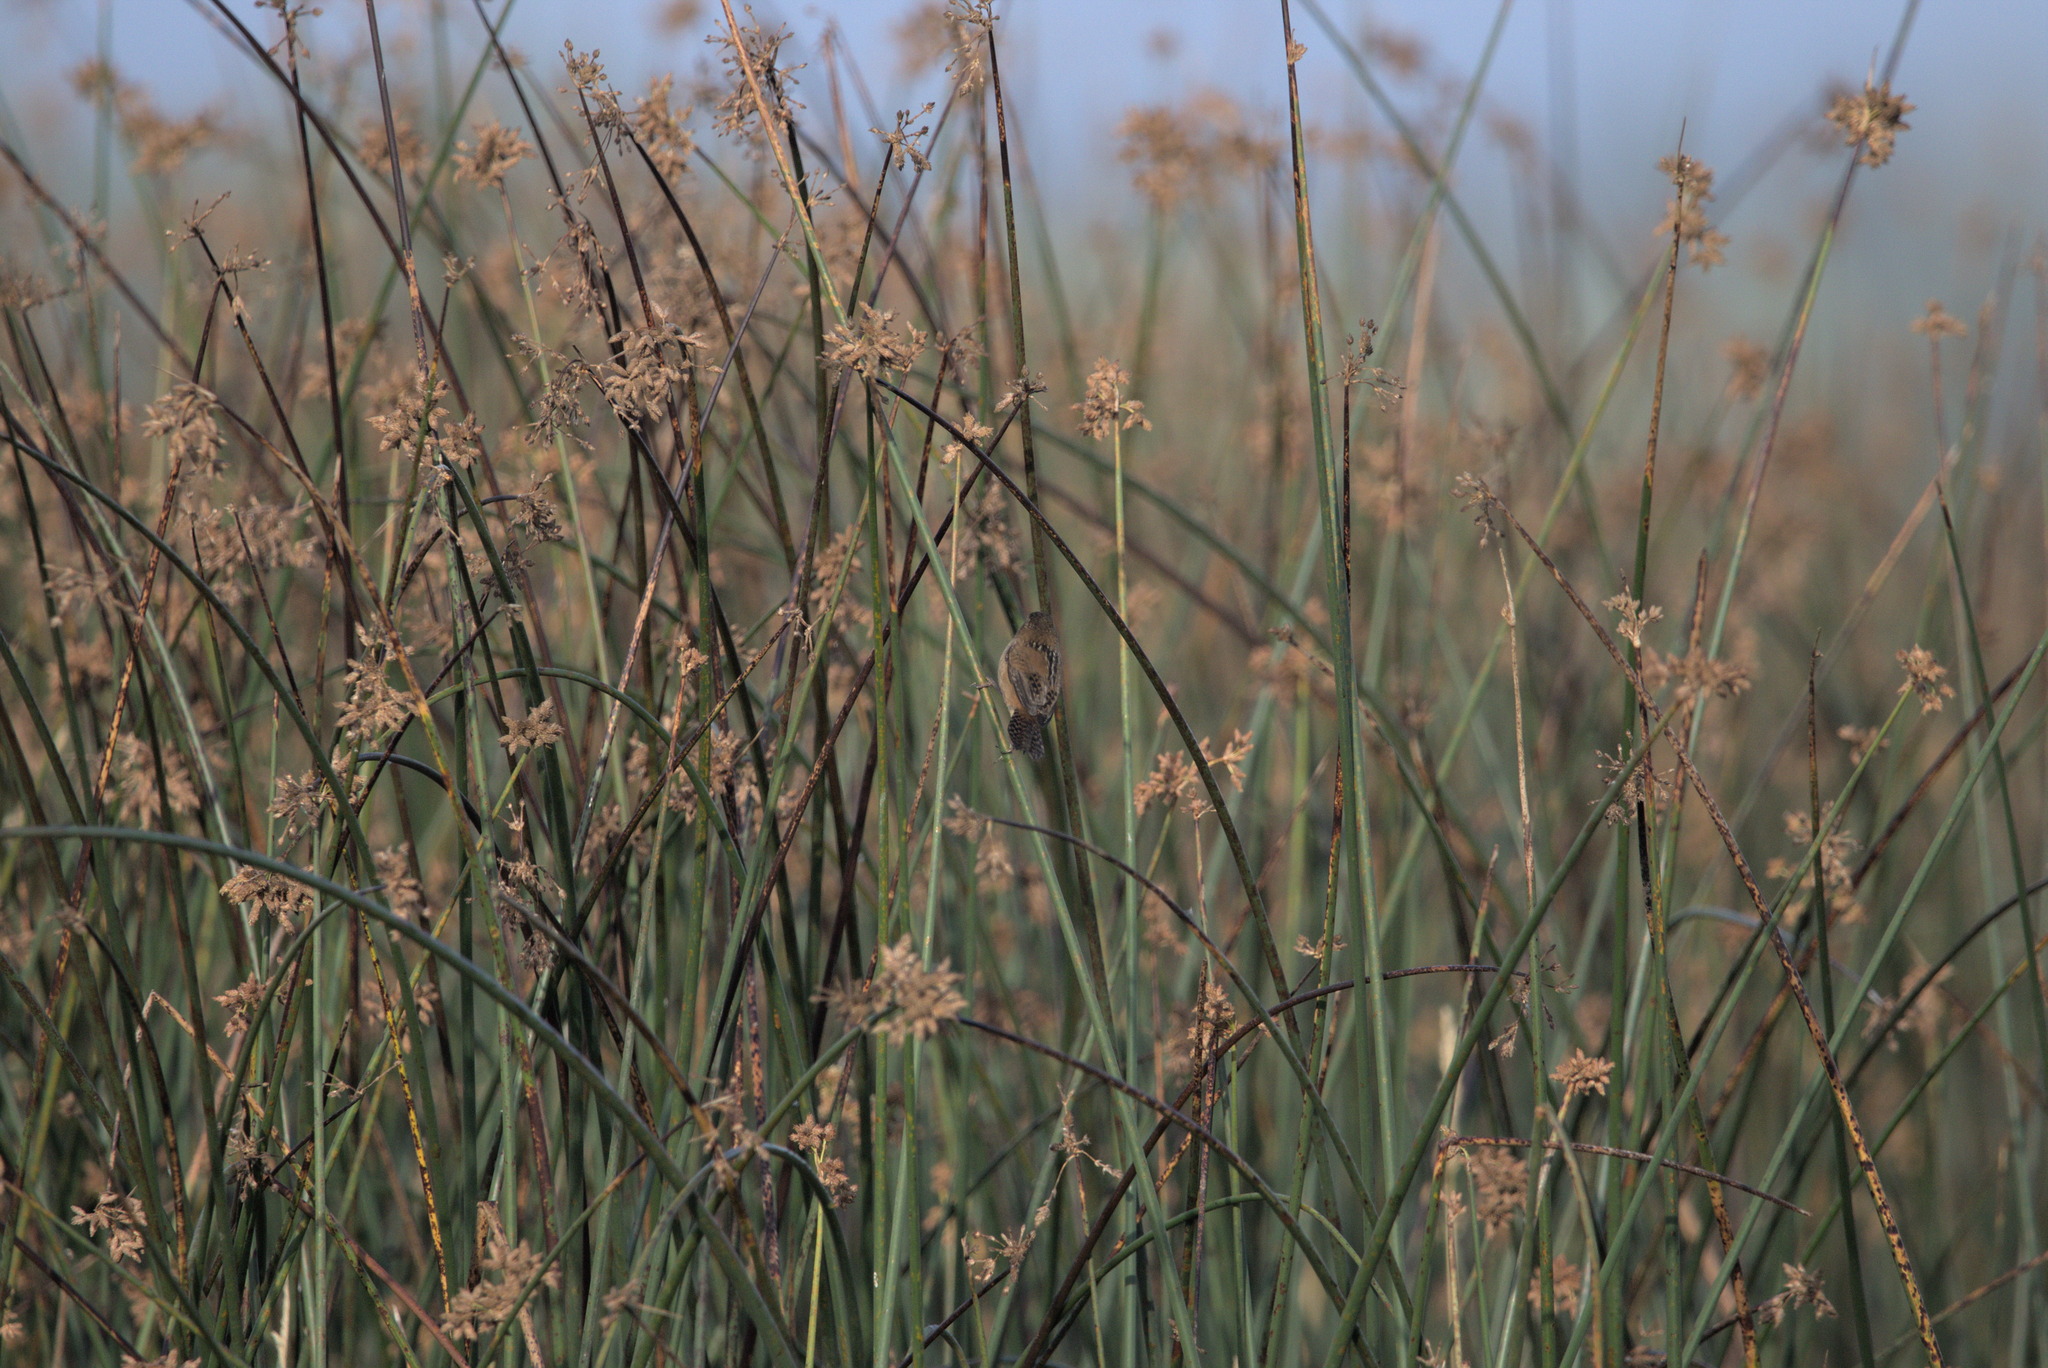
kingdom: Animalia
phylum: Chordata
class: Aves
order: Passeriformes
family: Troglodytidae
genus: Cistothorus
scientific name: Cistothorus palustris
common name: Marsh wren
